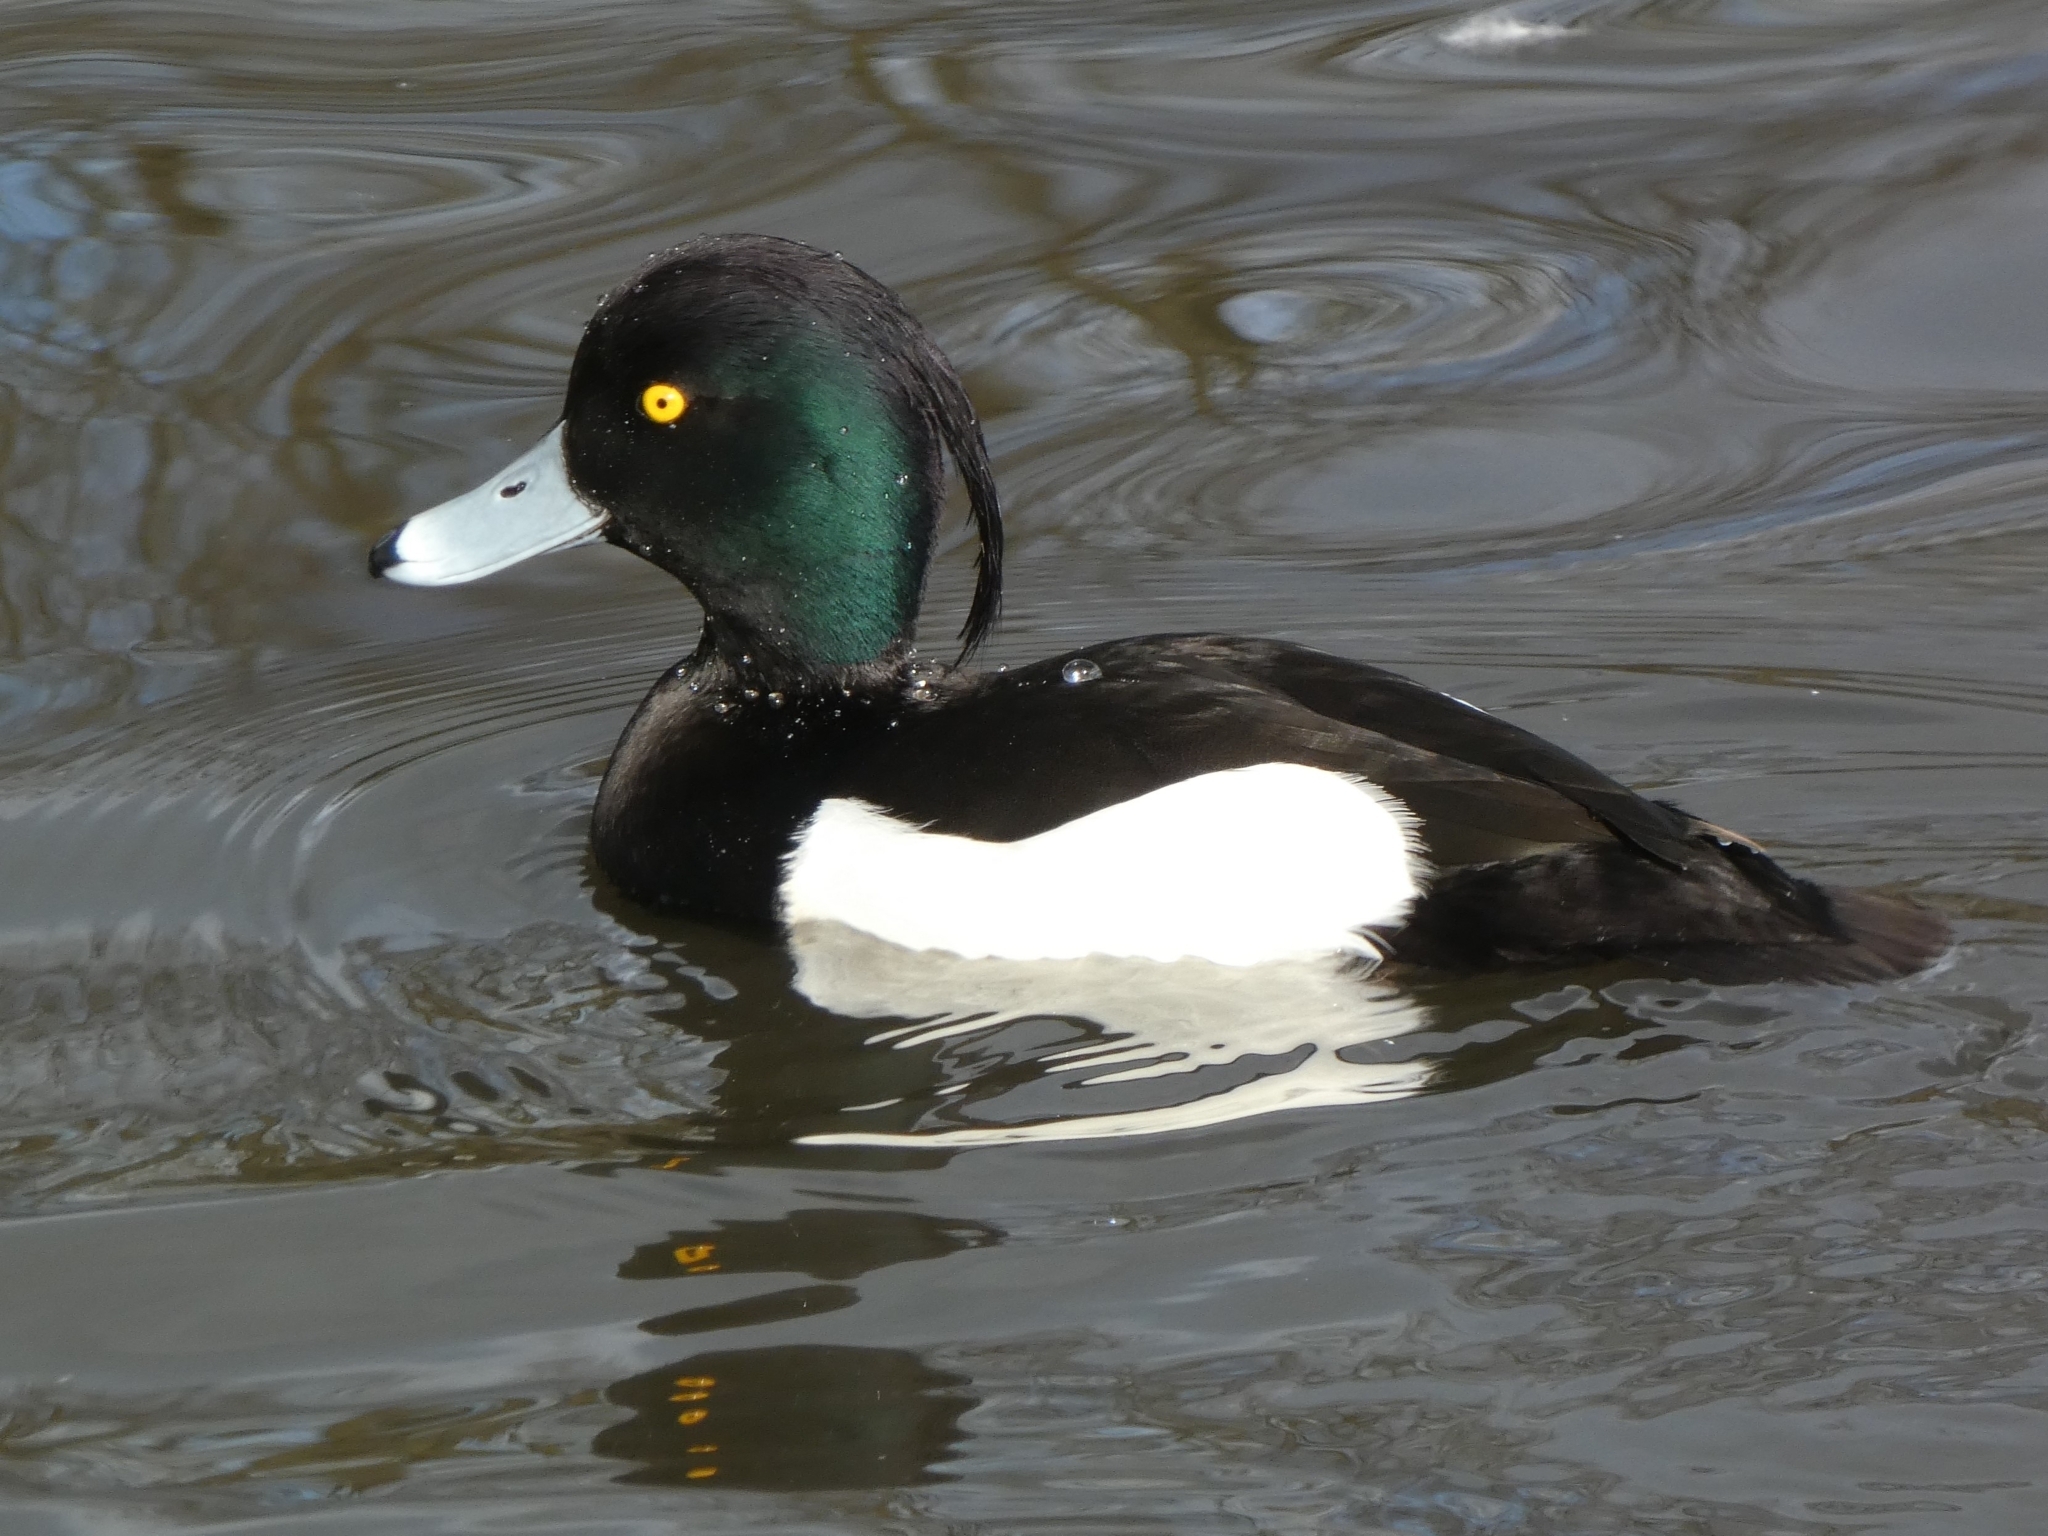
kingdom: Animalia
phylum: Chordata
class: Aves
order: Anseriformes
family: Anatidae
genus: Aythya
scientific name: Aythya fuligula
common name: Tufted duck
